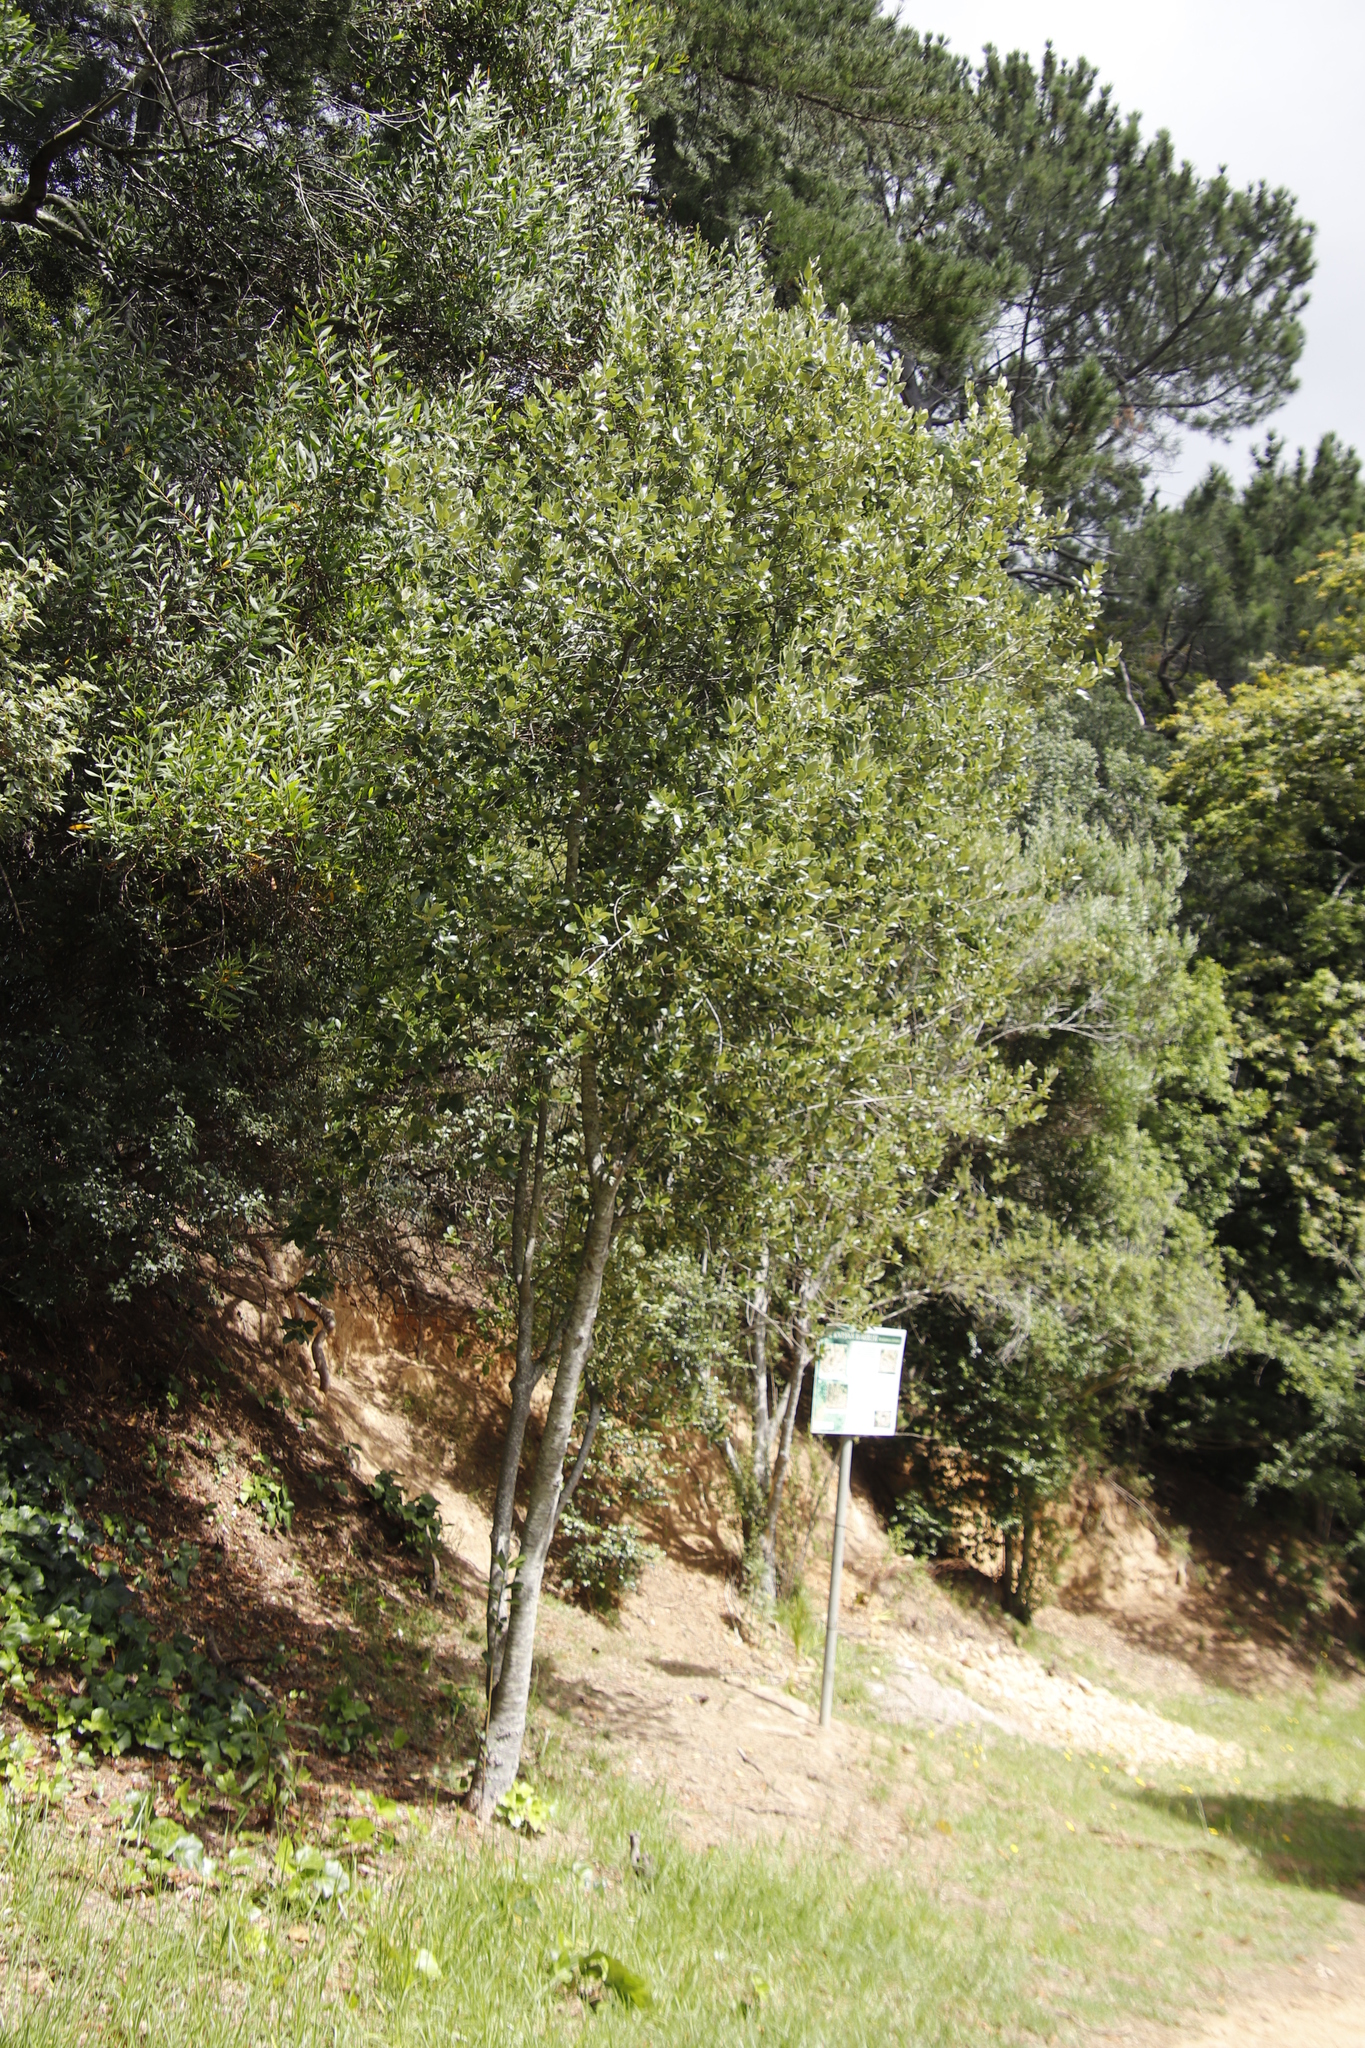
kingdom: Plantae
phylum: Tracheophyta
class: Magnoliopsida
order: Malpighiales
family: Achariaceae
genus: Kiggelaria
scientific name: Kiggelaria africana
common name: Wild peach
